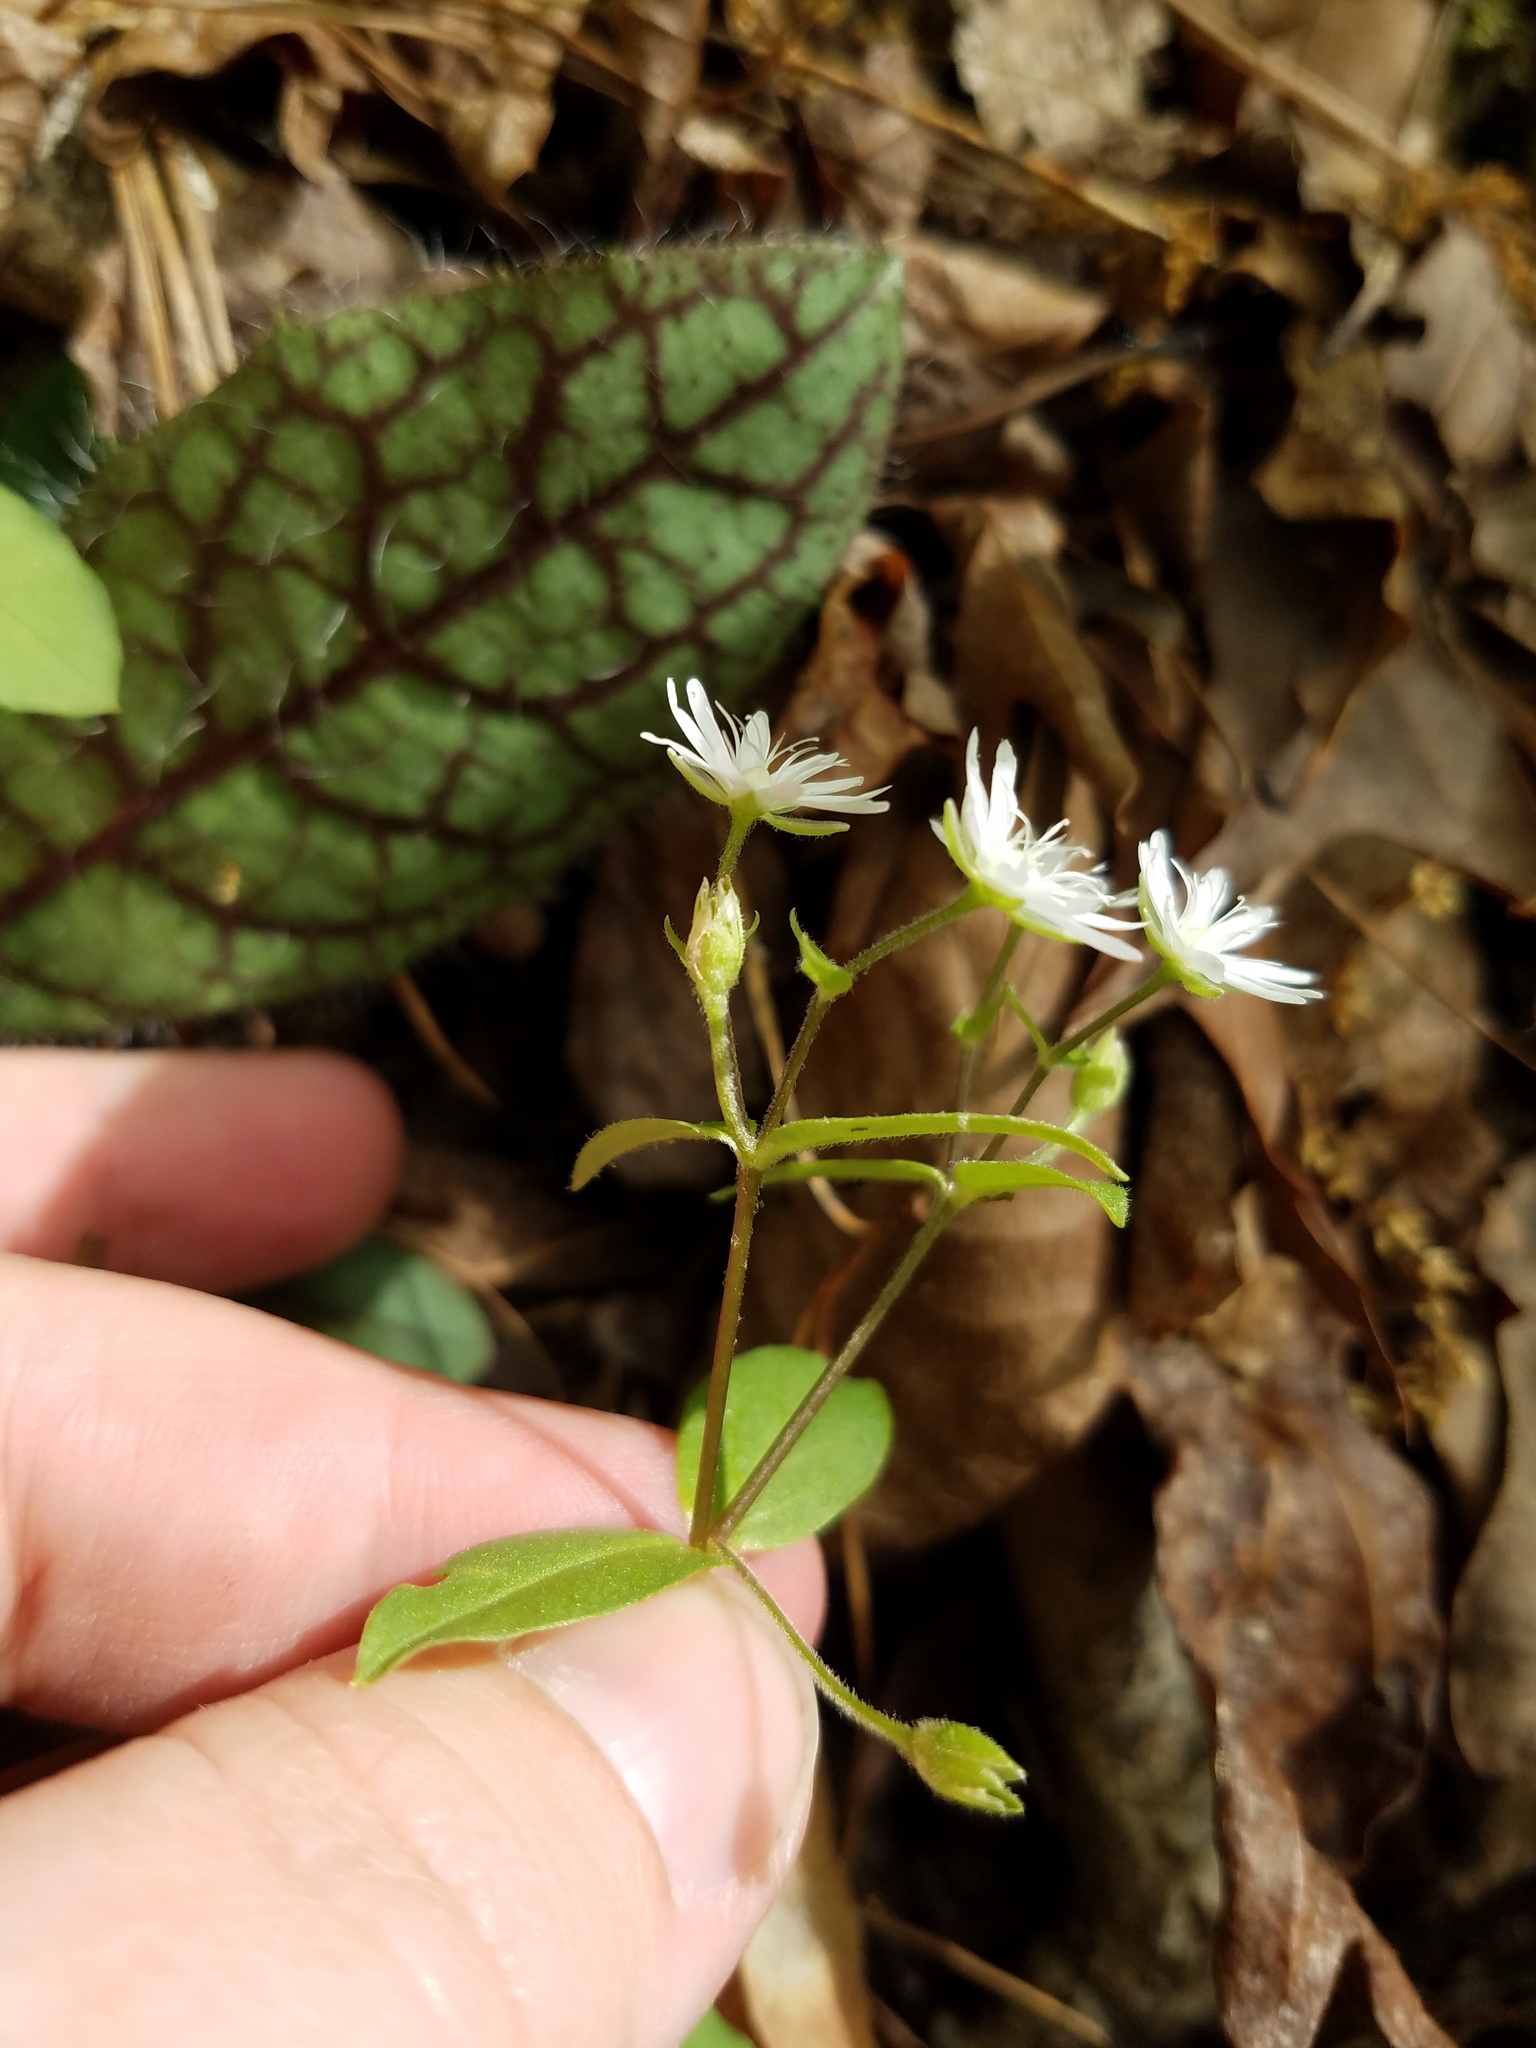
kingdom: Plantae
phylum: Tracheophyta
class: Magnoliopsida
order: Caryophyllales
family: Caryophyllaceae
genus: Stellaria
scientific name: Stellaria pubera
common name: Star chickweed
